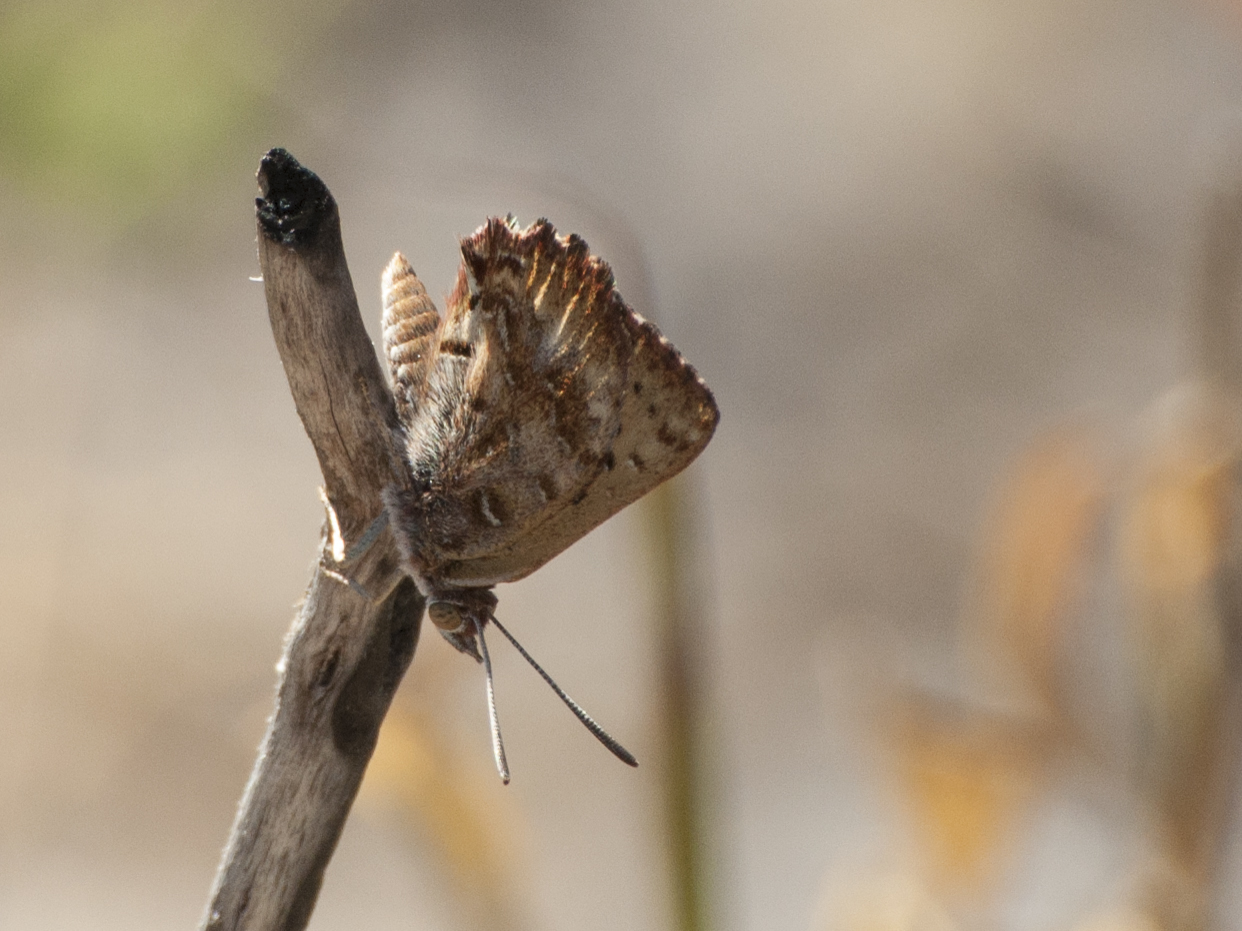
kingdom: Animalia
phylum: Arthropoda
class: Insecta
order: Lepidoptera
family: Lycaenidae
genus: Aloeides
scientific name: Aloeides pierus
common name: Dull copper
